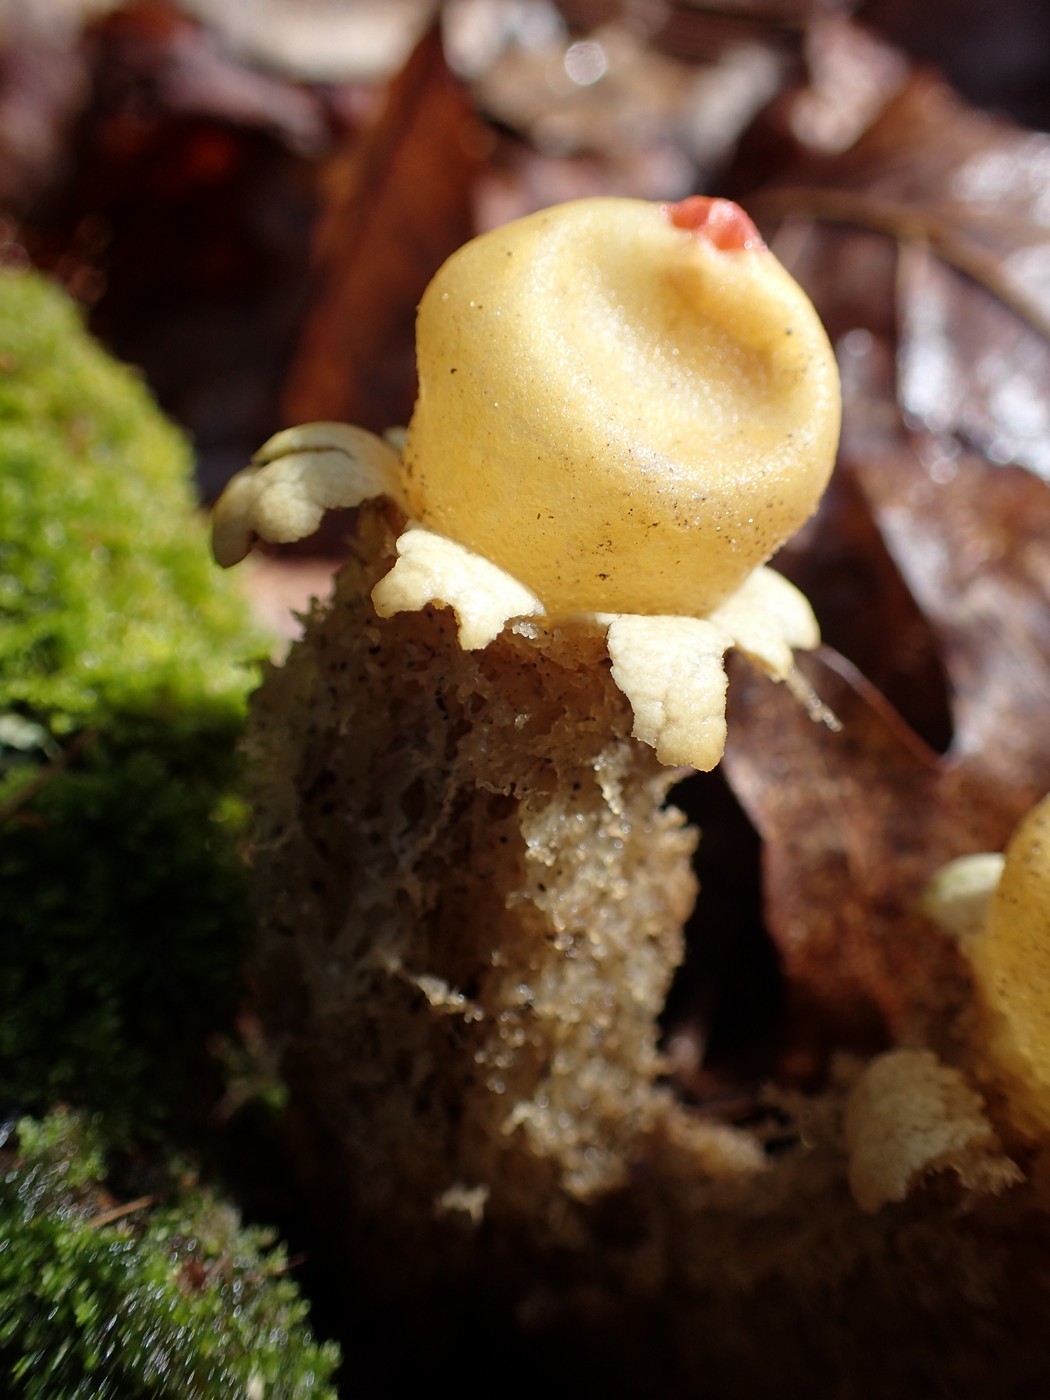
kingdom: Fungi
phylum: Basidiomycota
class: Agaricomycetes
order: Boletales
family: Calostomataceae
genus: Calostoma
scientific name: Calostoma lutescens
